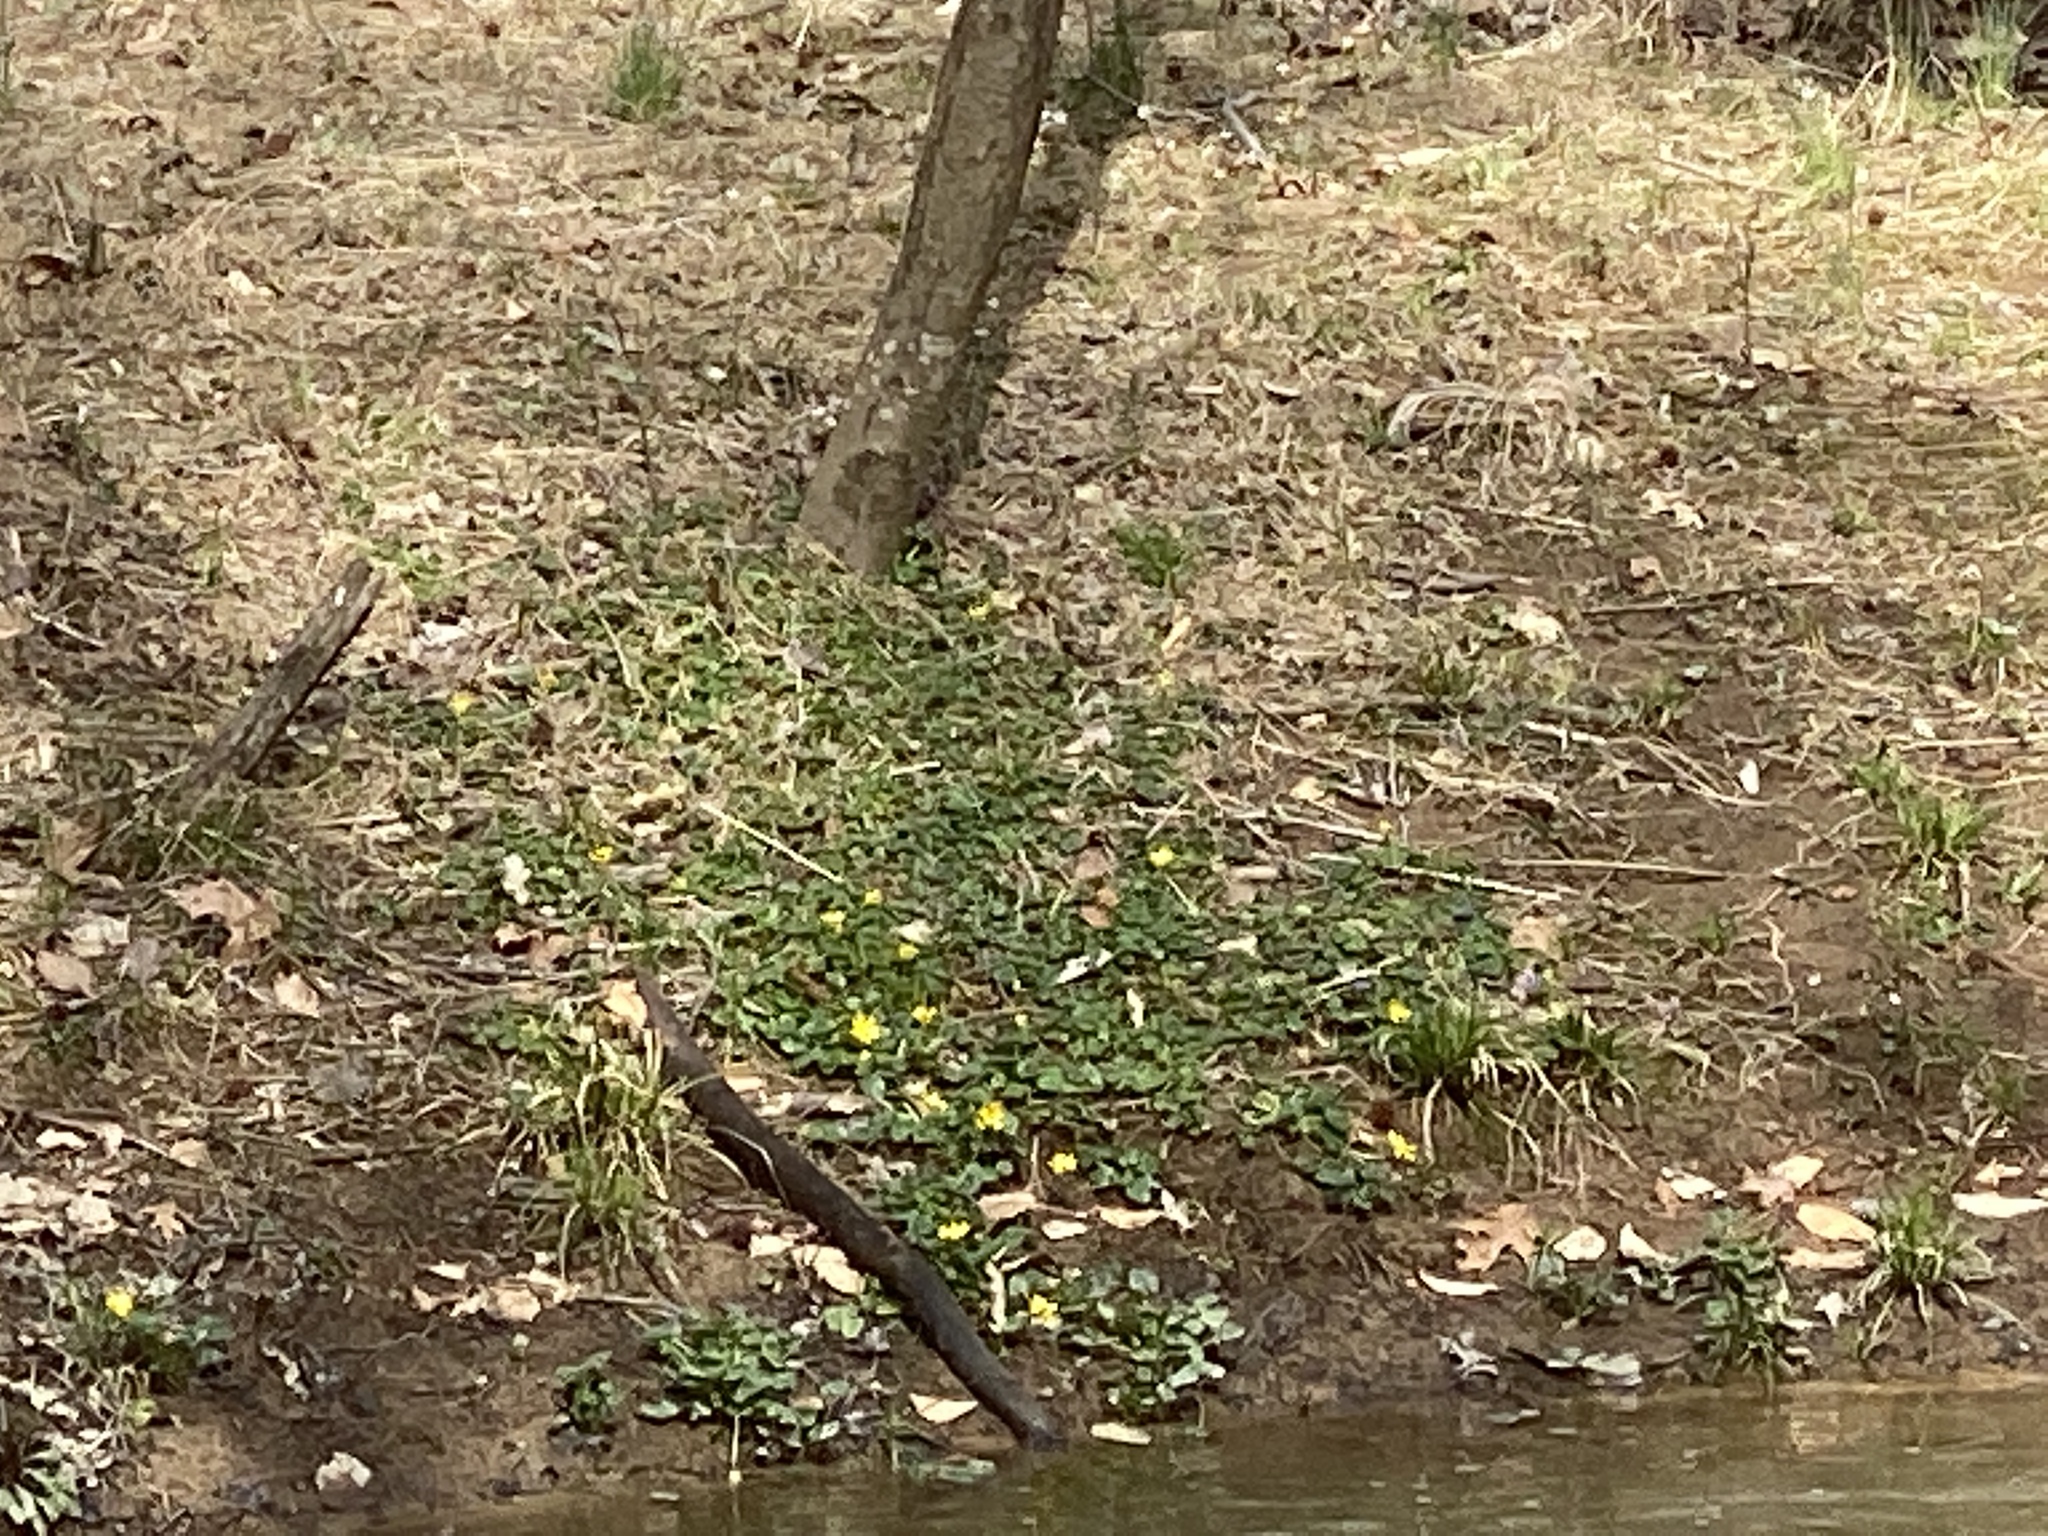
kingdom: Plantae
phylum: Tracheophyta
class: Magnoliopsida
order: Ranunculales
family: Ranunculaceae
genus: Ficaria
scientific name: Ficaria verna
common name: Lesser celandine
